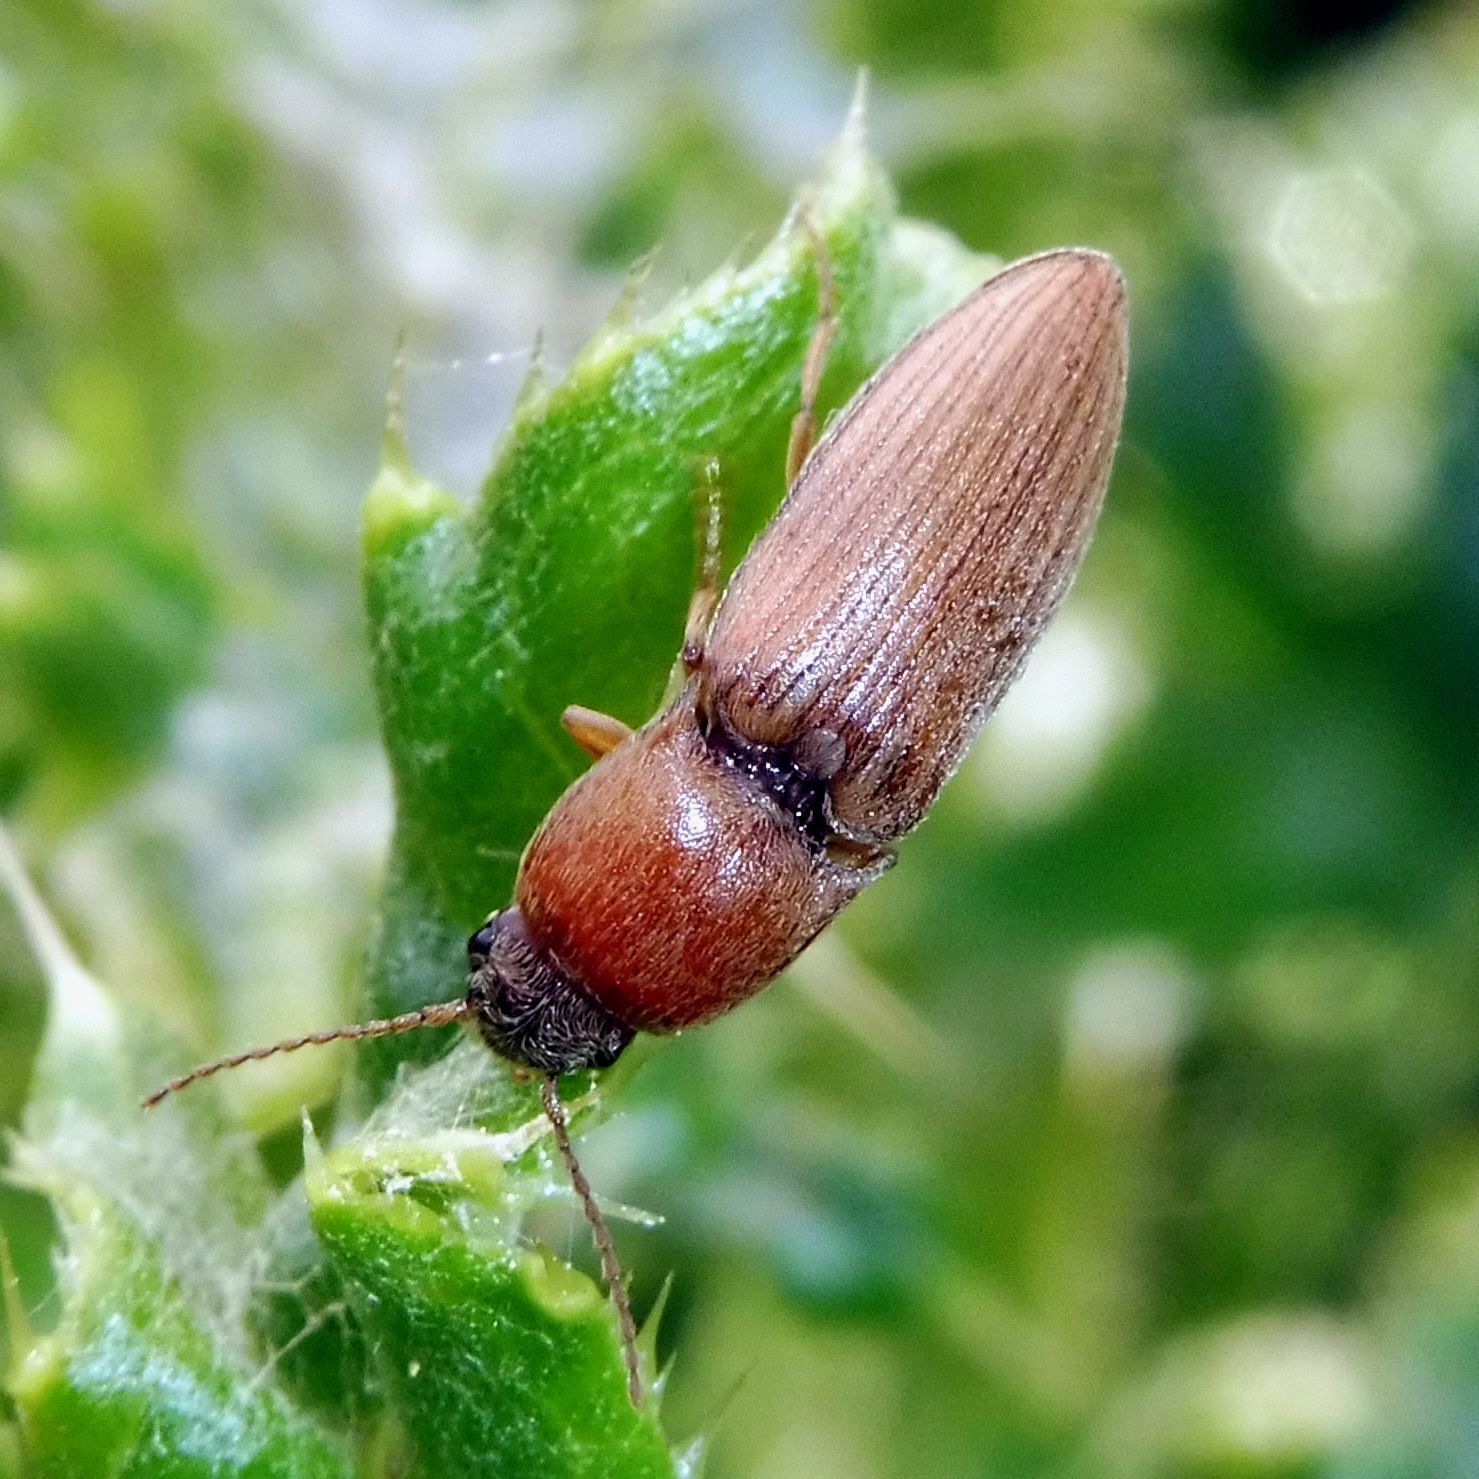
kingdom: Animalia
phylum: Arthropoda
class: Insecta
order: Coleoptera
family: Elateridae
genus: Agriotes
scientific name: Agriotes lineatus
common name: Lined click beetle
